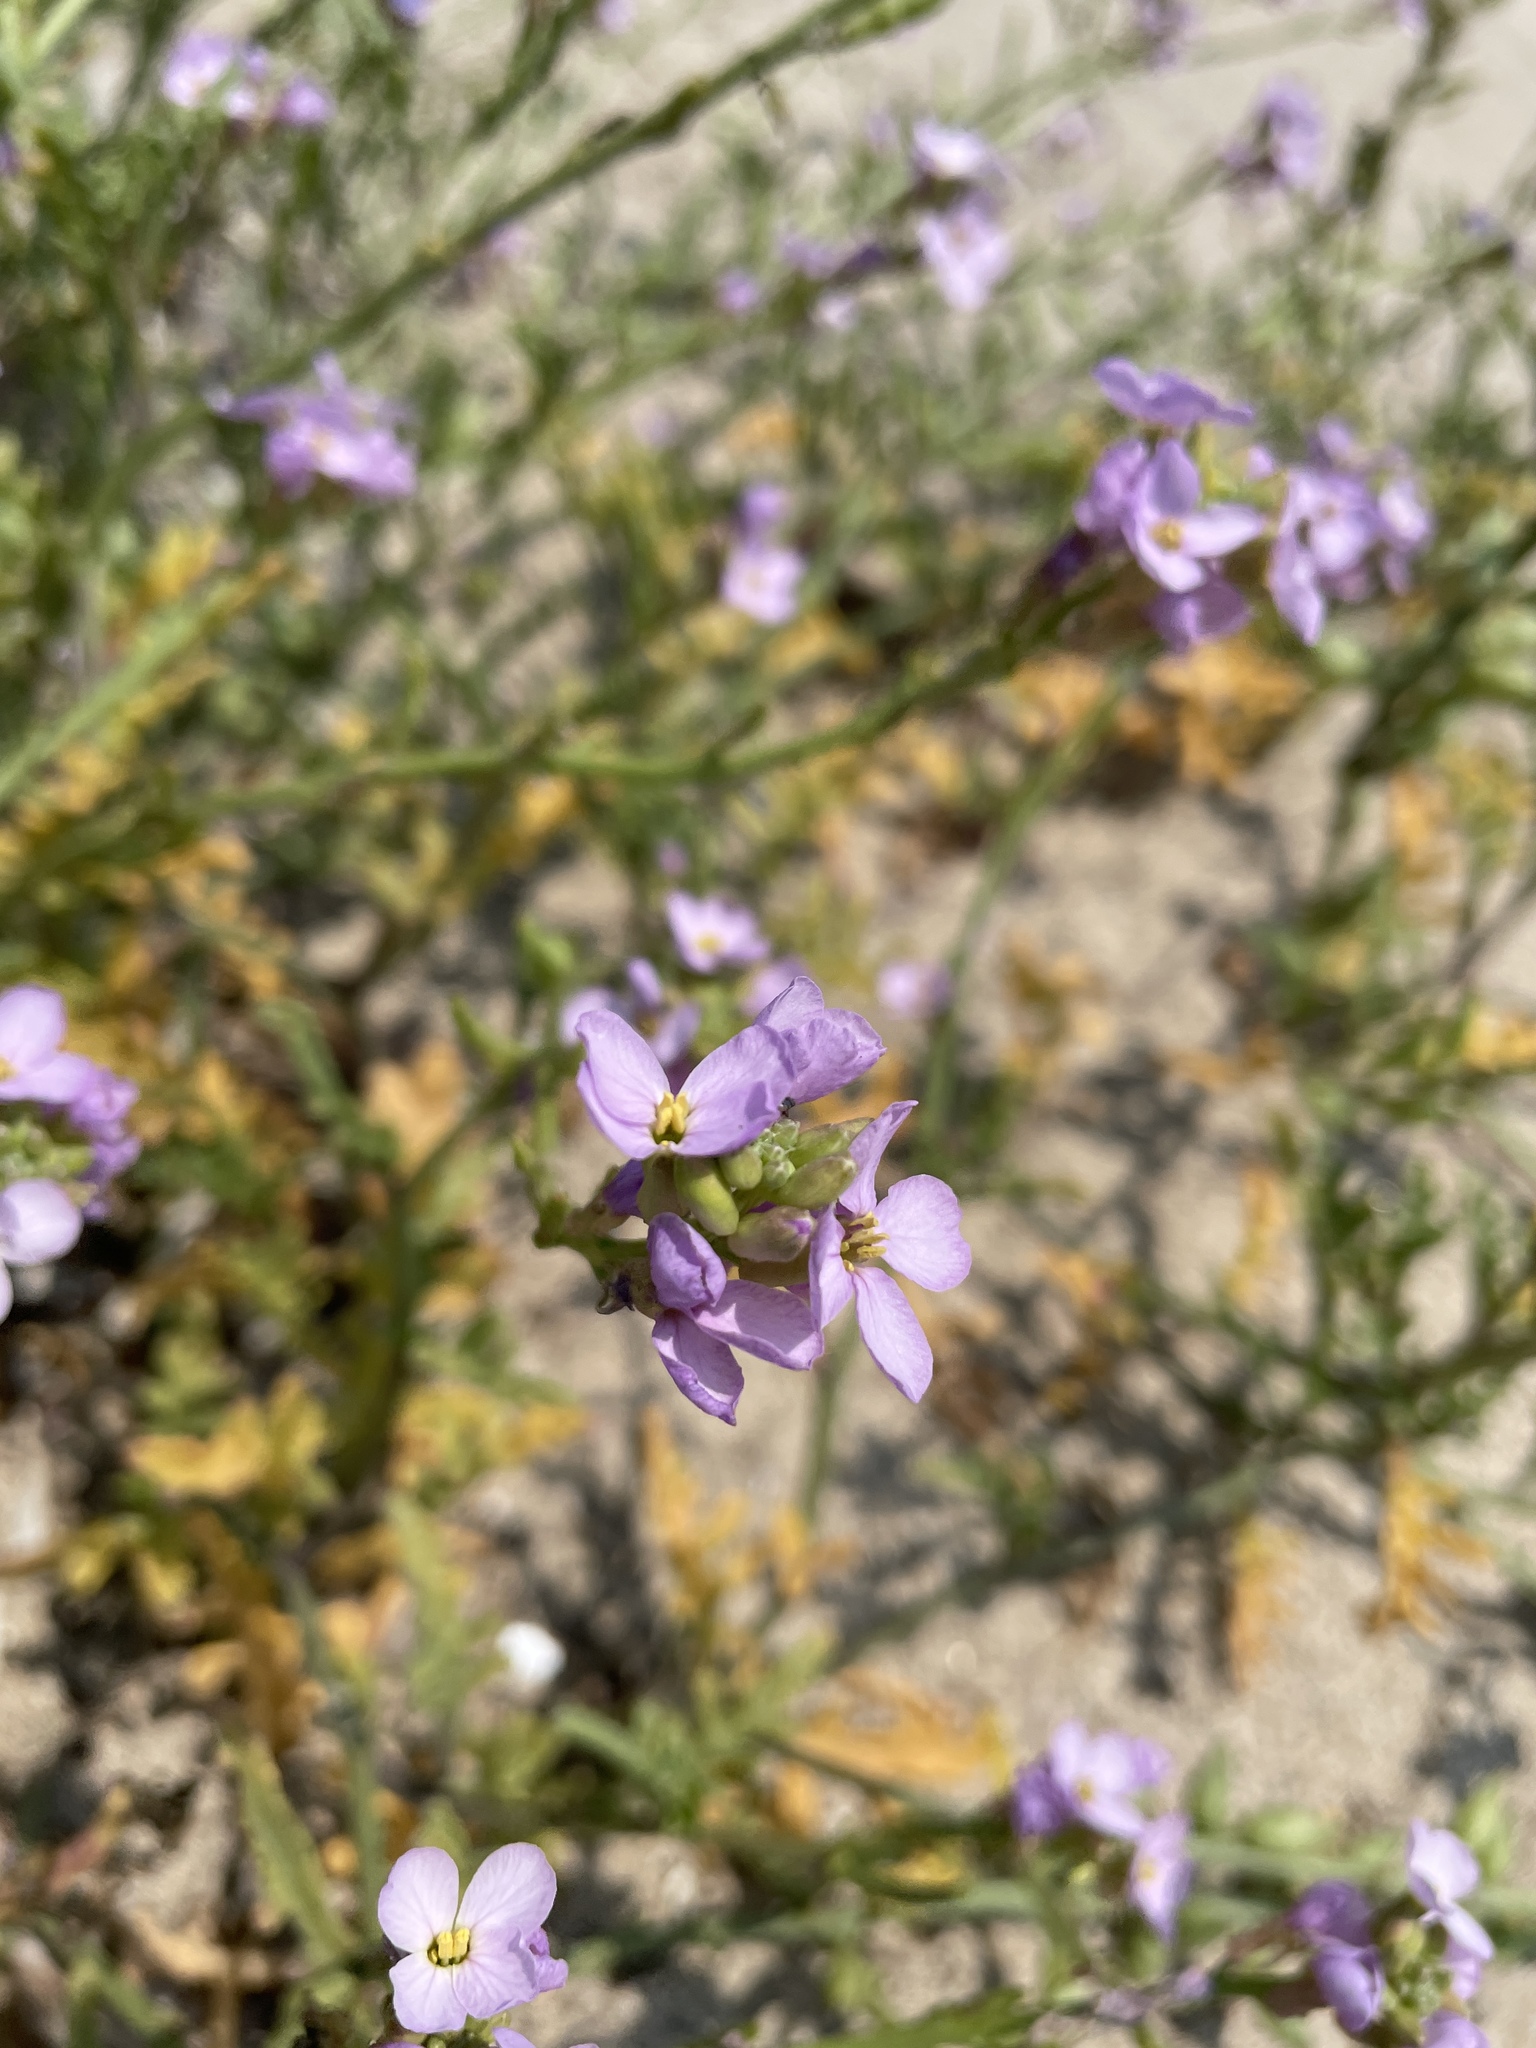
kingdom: Plantae
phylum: Tracheophyta
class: Magnoliopsida
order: Brassicales
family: Brassicaceae
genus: Cakile
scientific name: Cakile maritima
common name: Sea rocket
